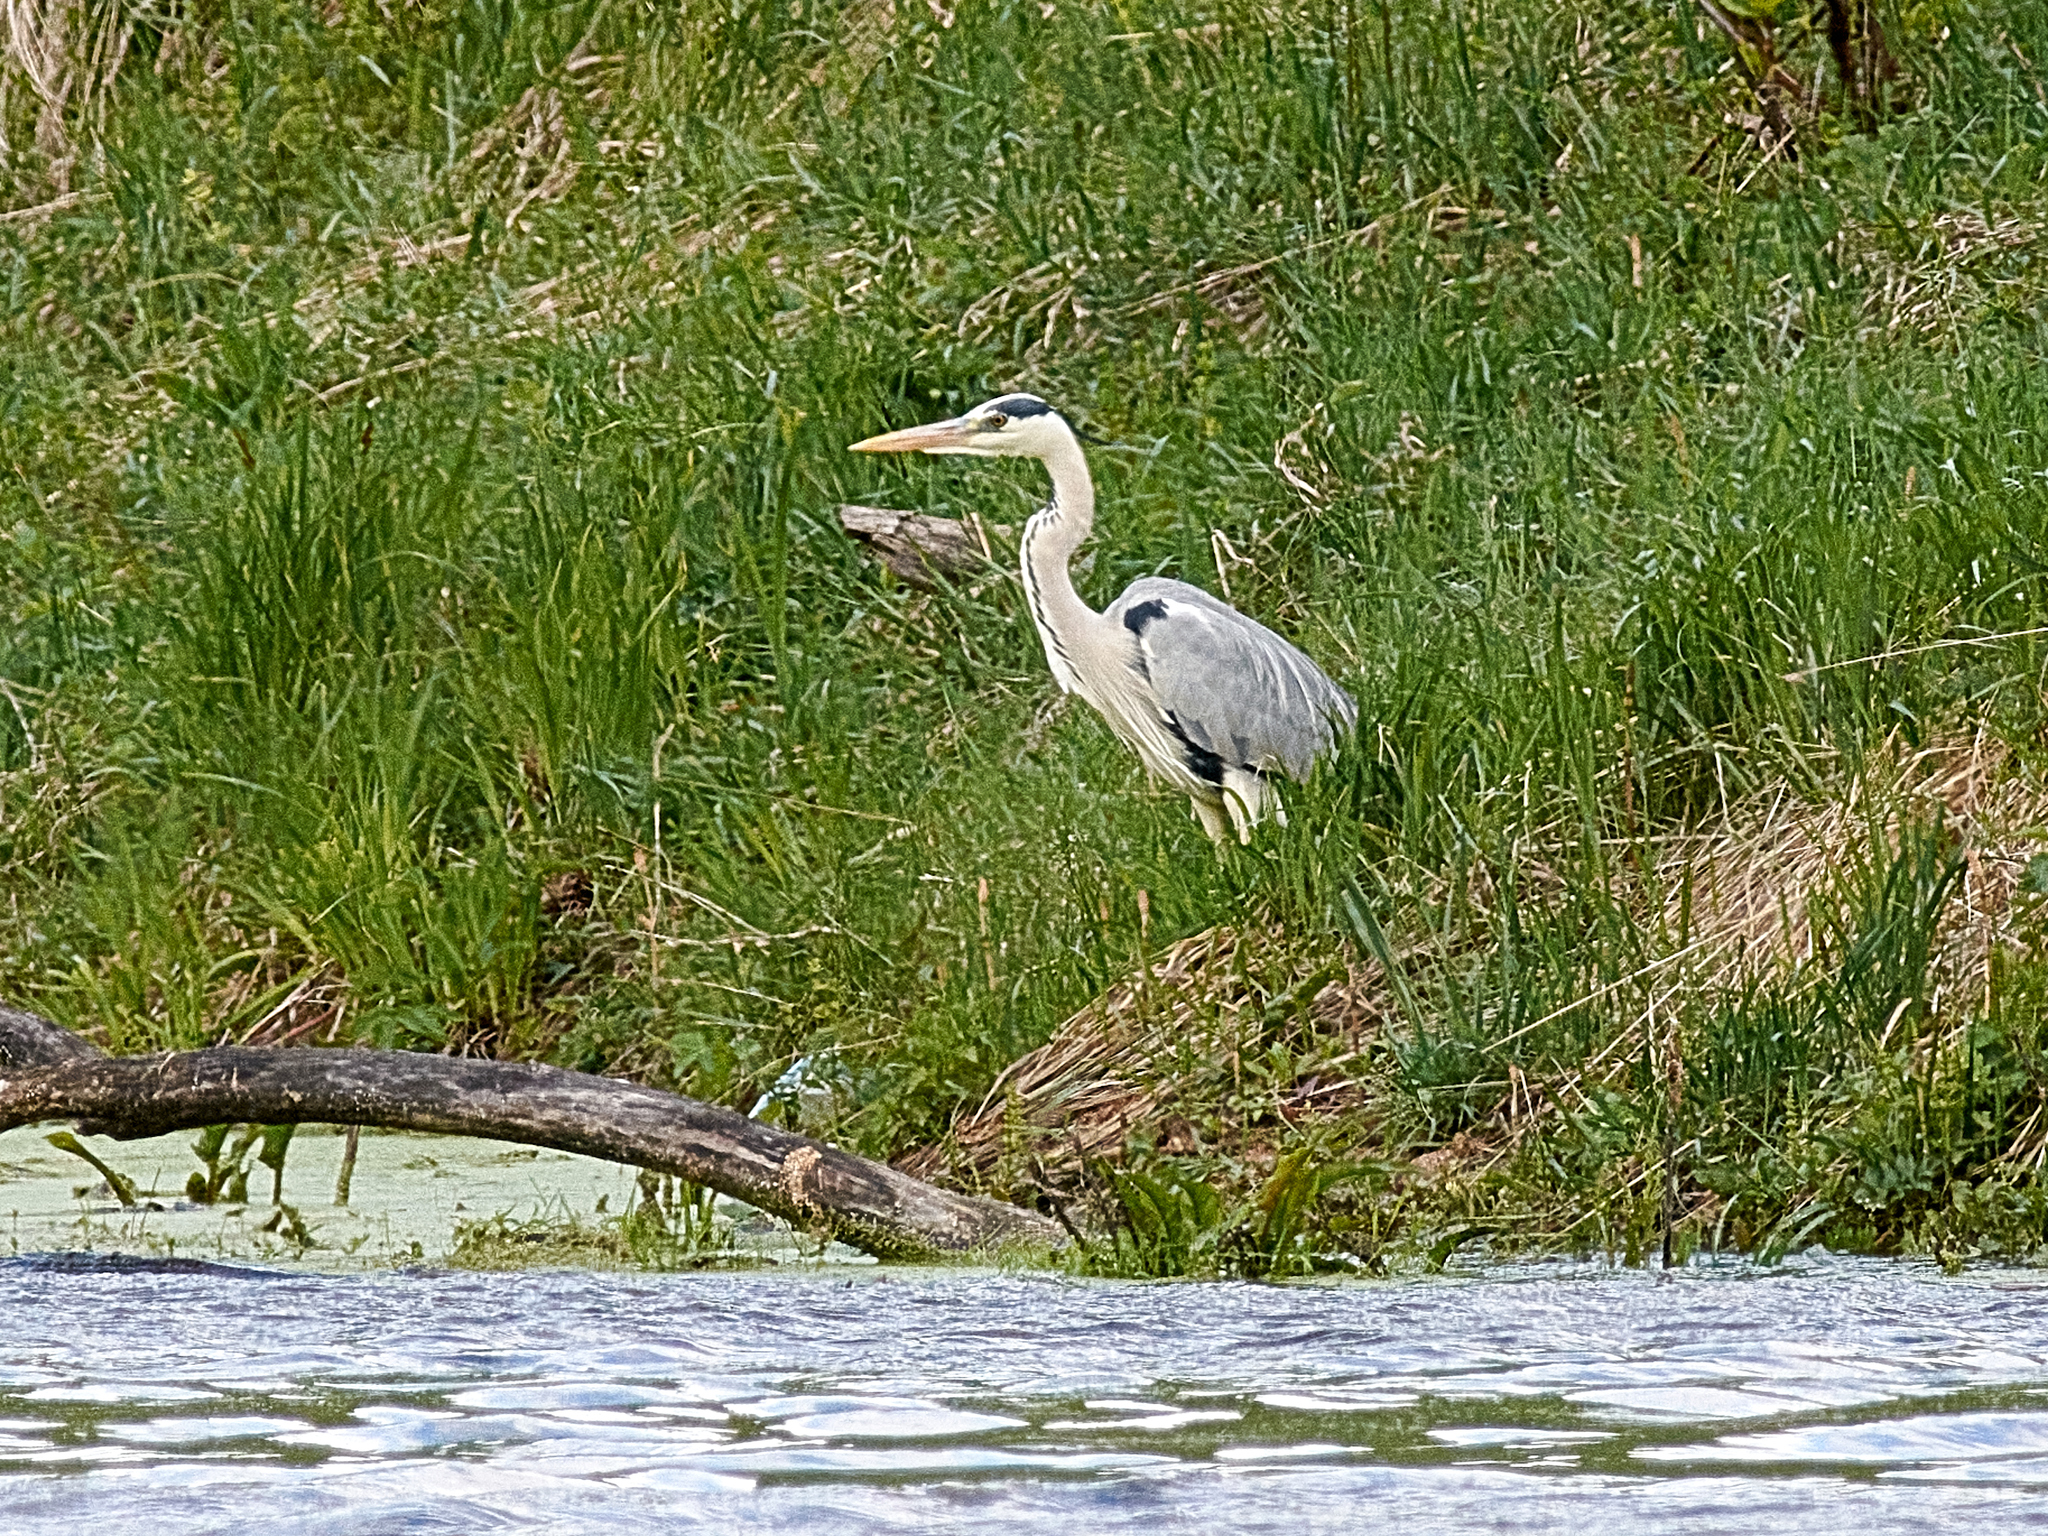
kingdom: Animalia
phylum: Chordata
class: Aves
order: Pelecaniformes
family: Ardeidae
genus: Ardea
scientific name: Ardea cinerea
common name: Grey heron
